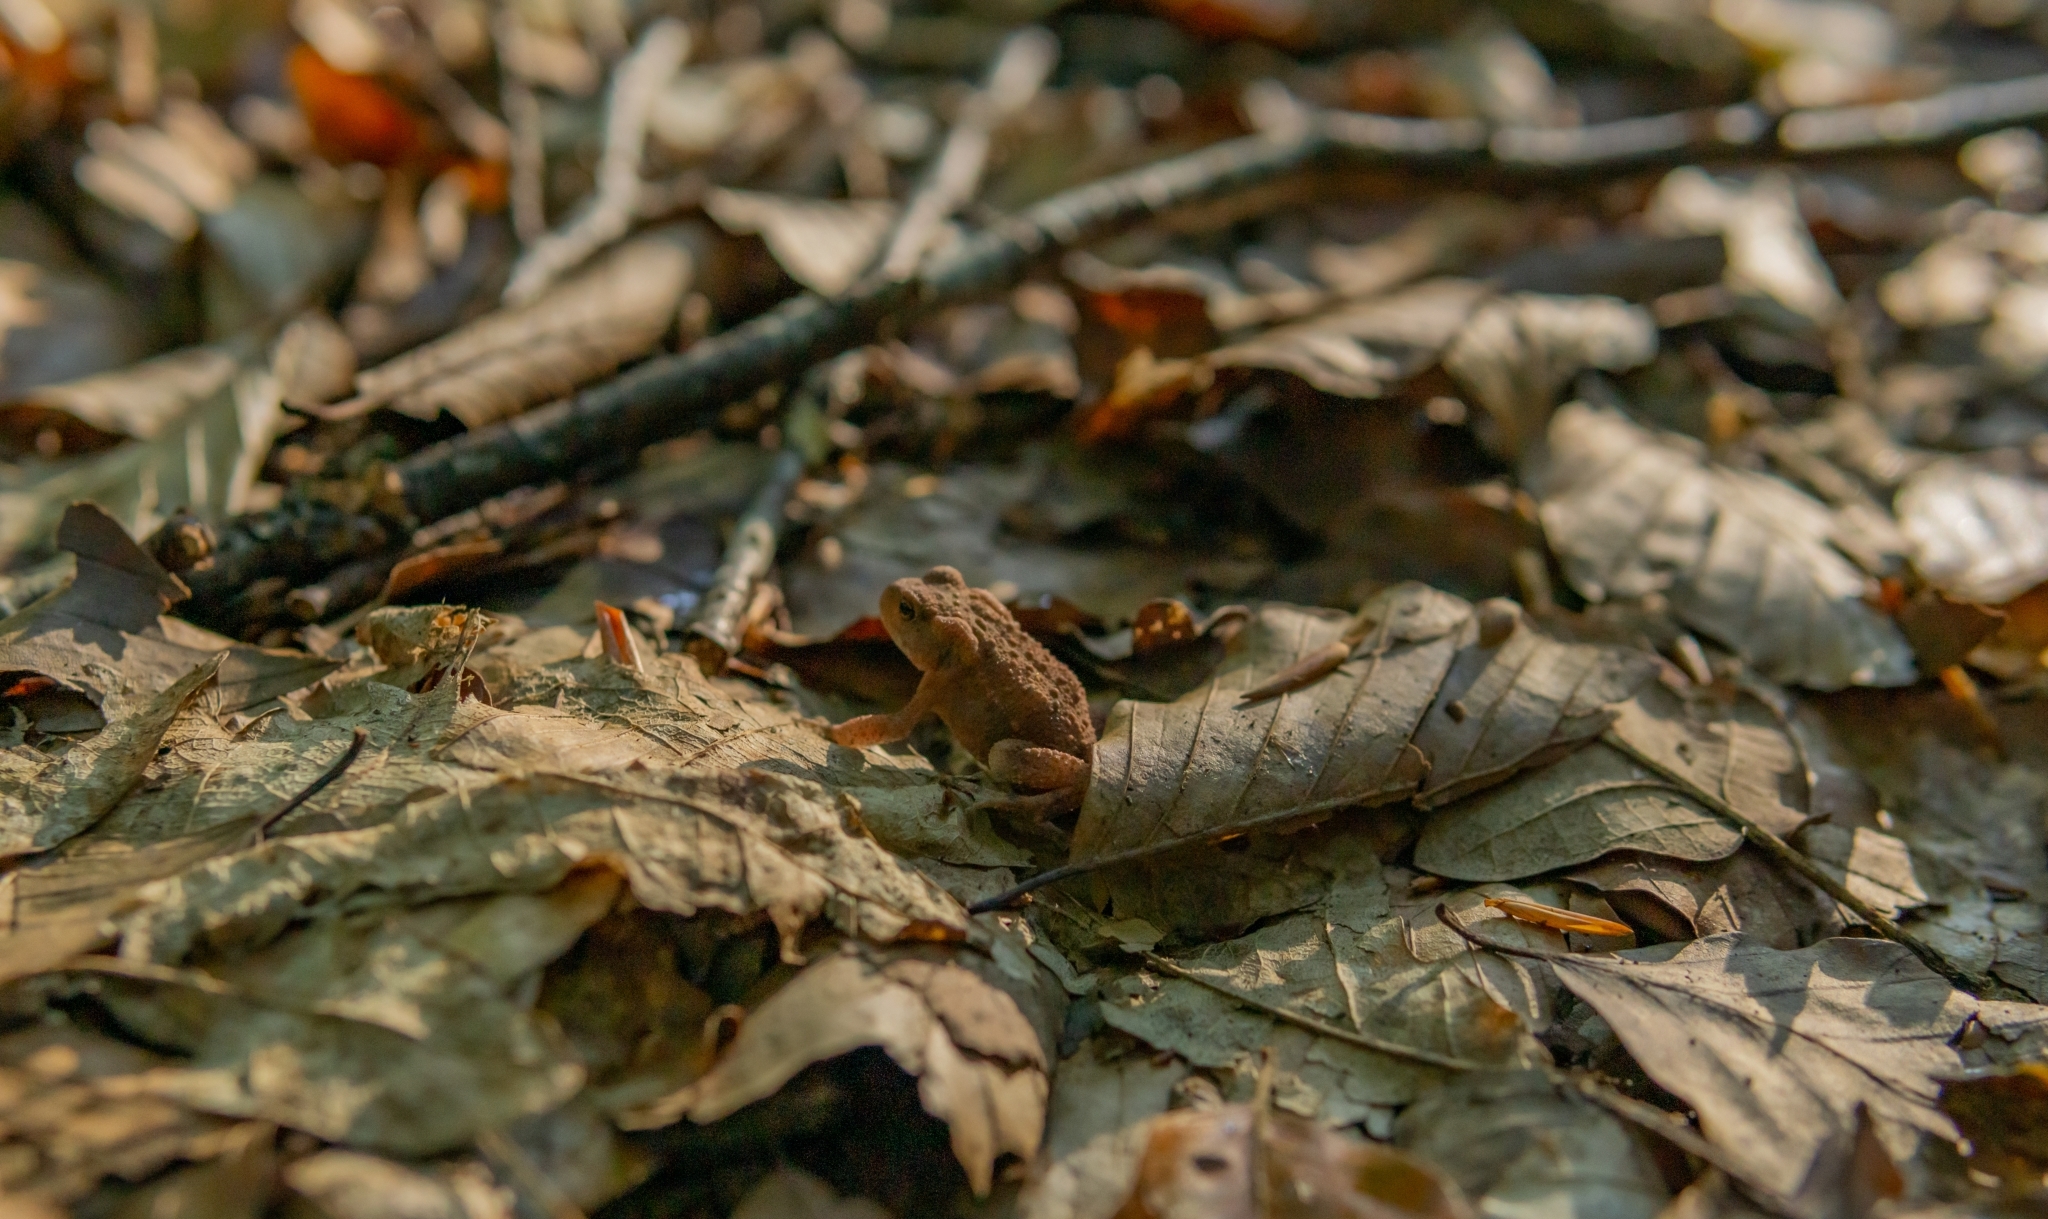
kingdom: Animalia
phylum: Chordata
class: Amphibia
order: Anura
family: Bufonidae
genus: Bufo
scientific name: Bufo bufo
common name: Common toad
